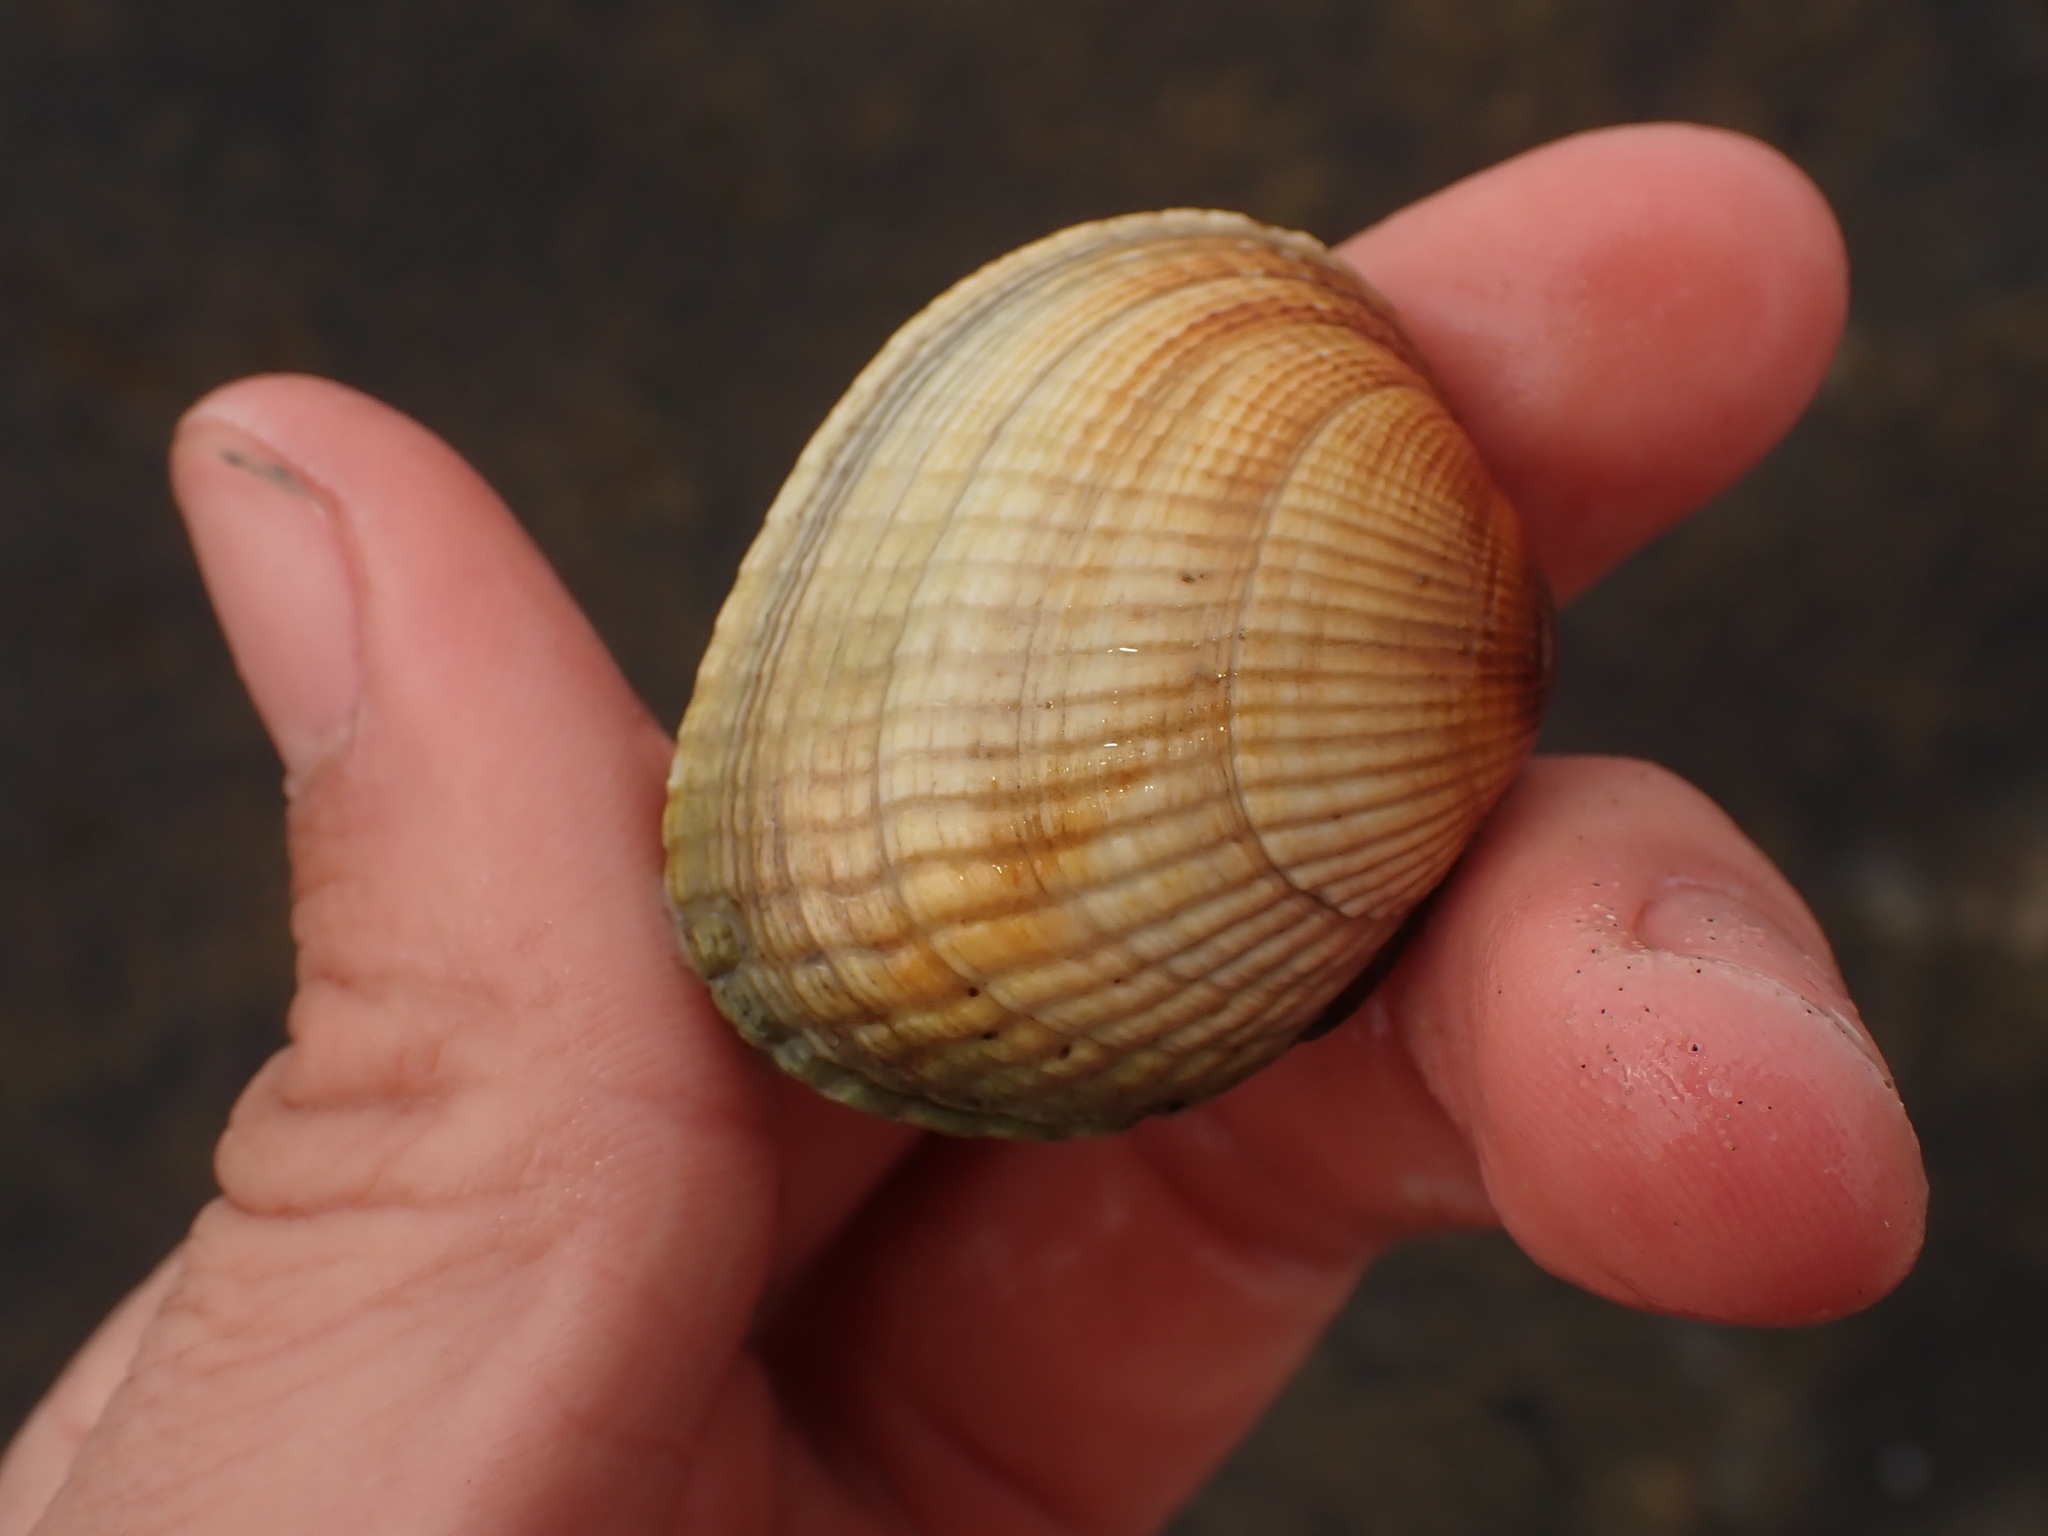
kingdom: Animalia
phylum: Mollusca
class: Bivalvia
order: Venerida
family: Veneridae
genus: Leukoma
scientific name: Leukoma crassicosta
